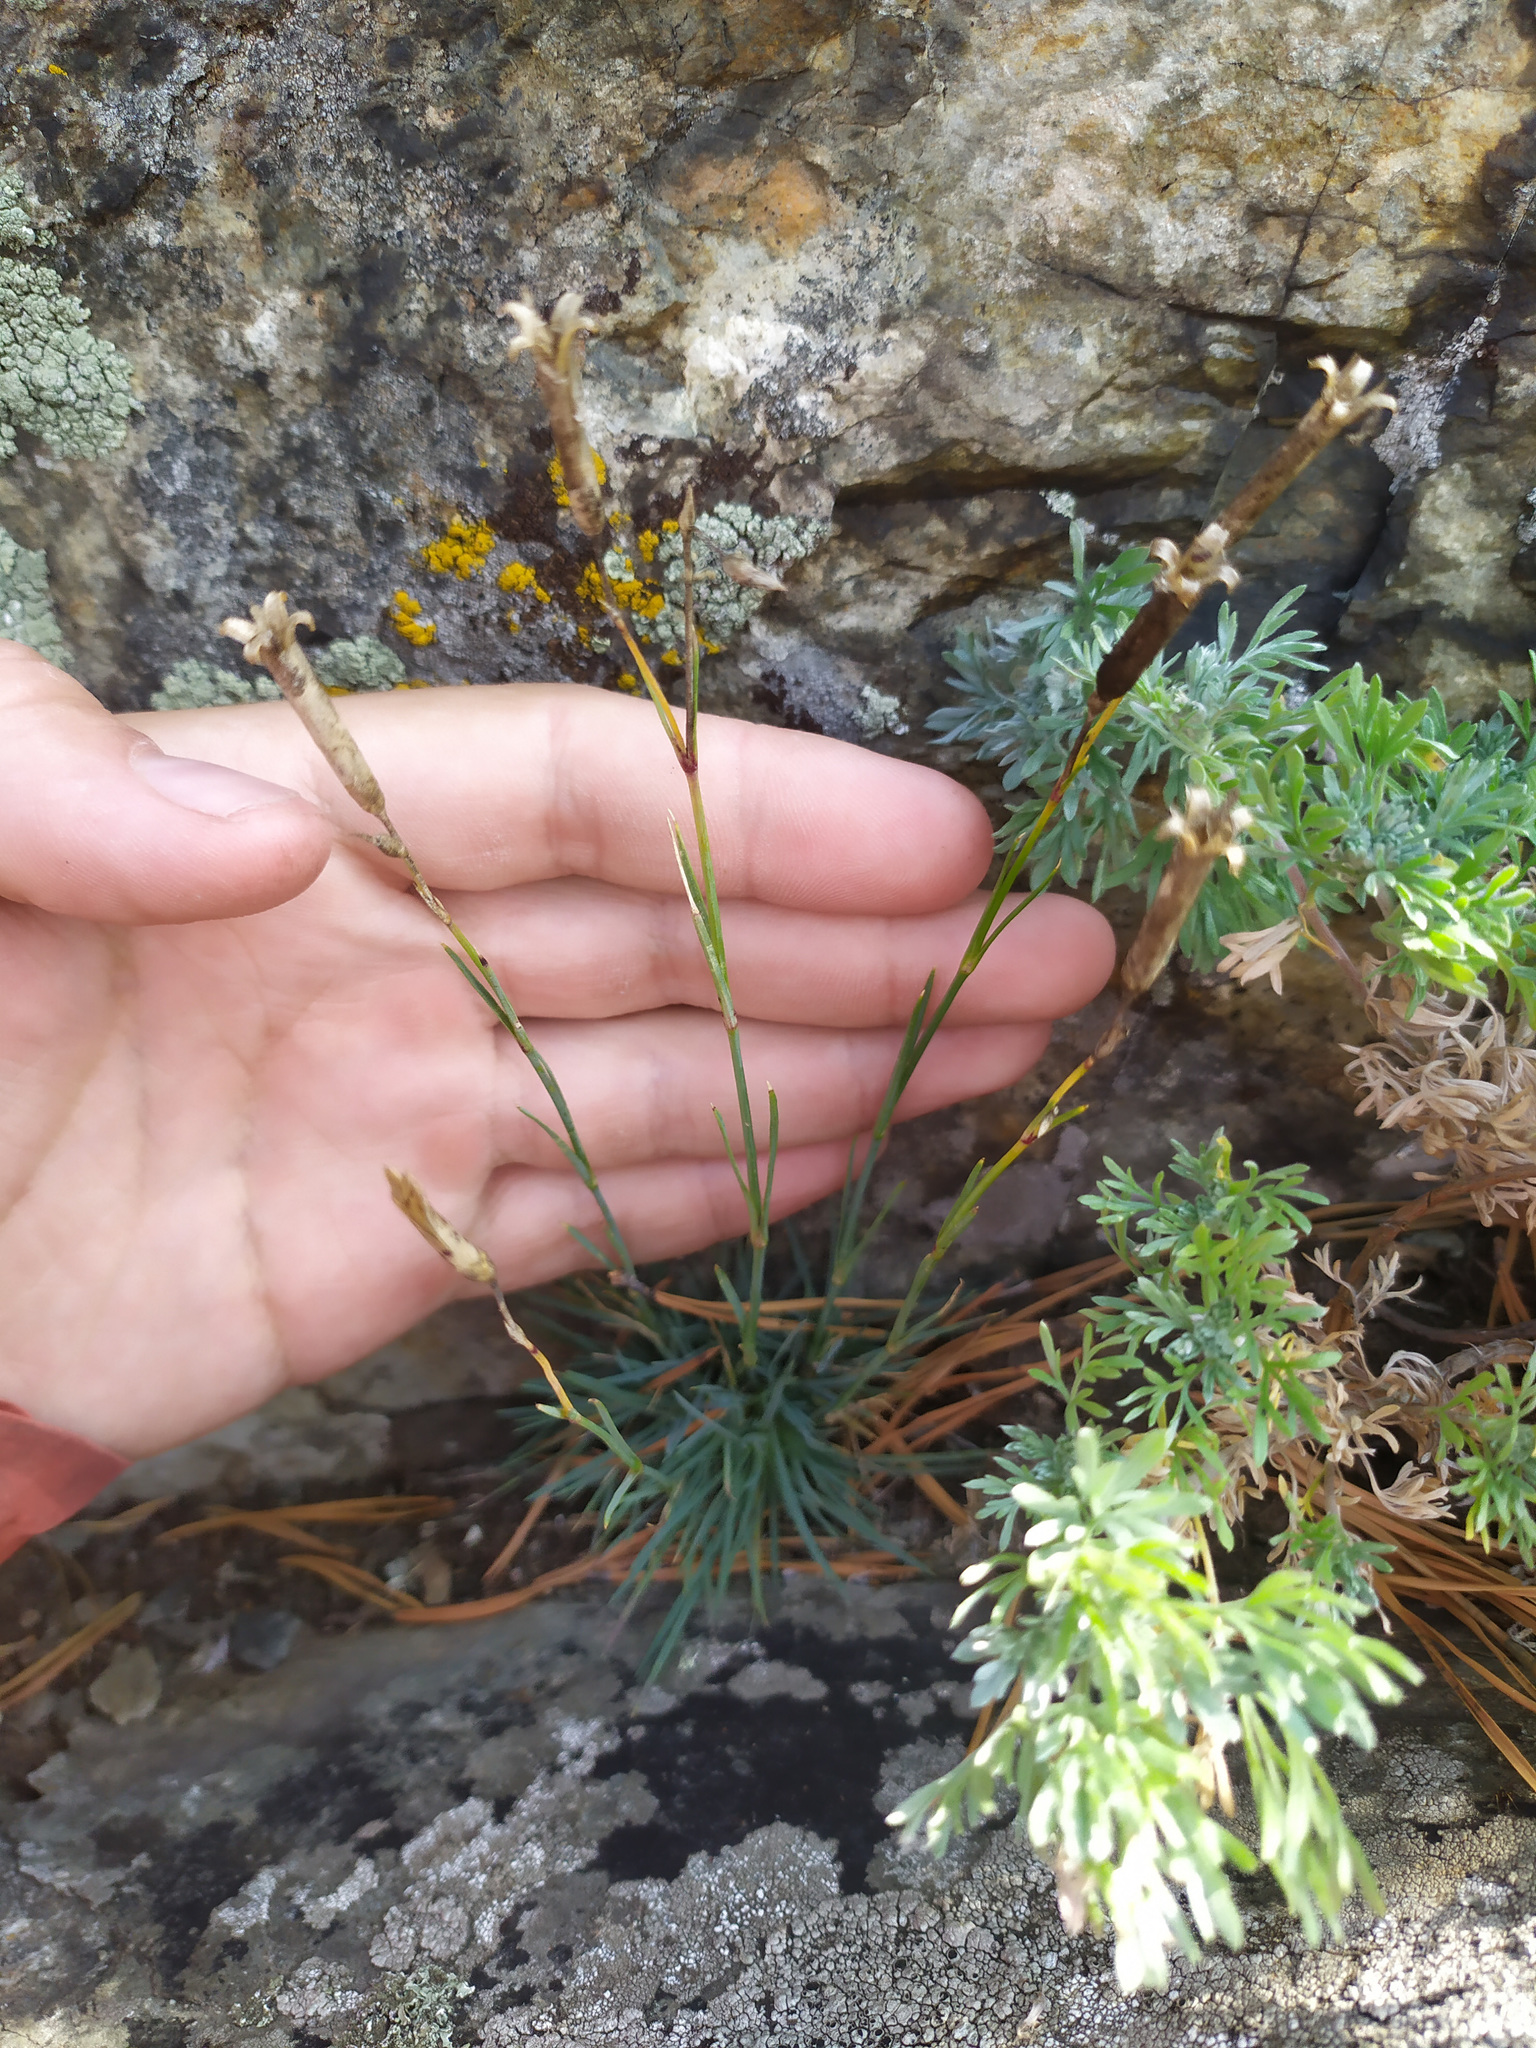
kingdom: Plantae
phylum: Tracheophyta
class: Magnoliopsida
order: Caryophyllales
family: Caryophyllaceae
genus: Dianthus
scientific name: Dianthus acicularis
